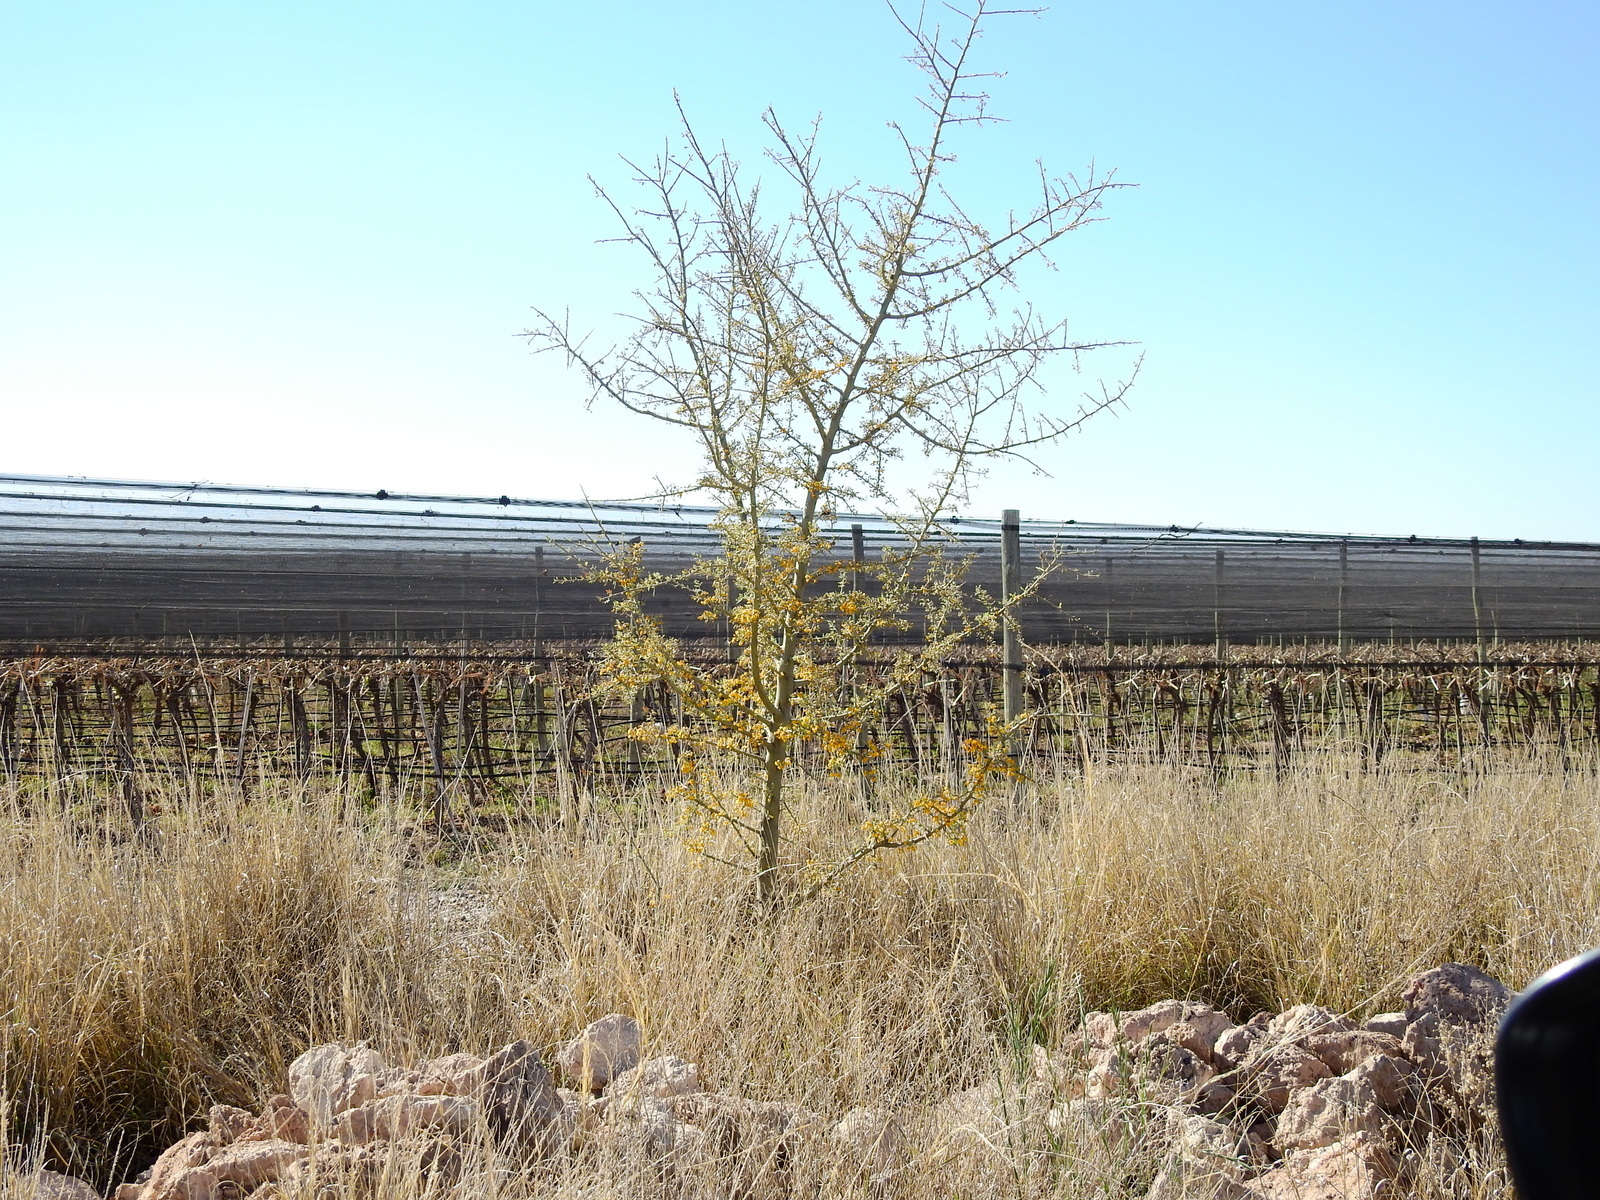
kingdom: Plantae
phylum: Tracheophyta
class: Magnoliopsida
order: Fabales
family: Fabaceae
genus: Geoffroea
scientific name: Geoffroea decorticans
